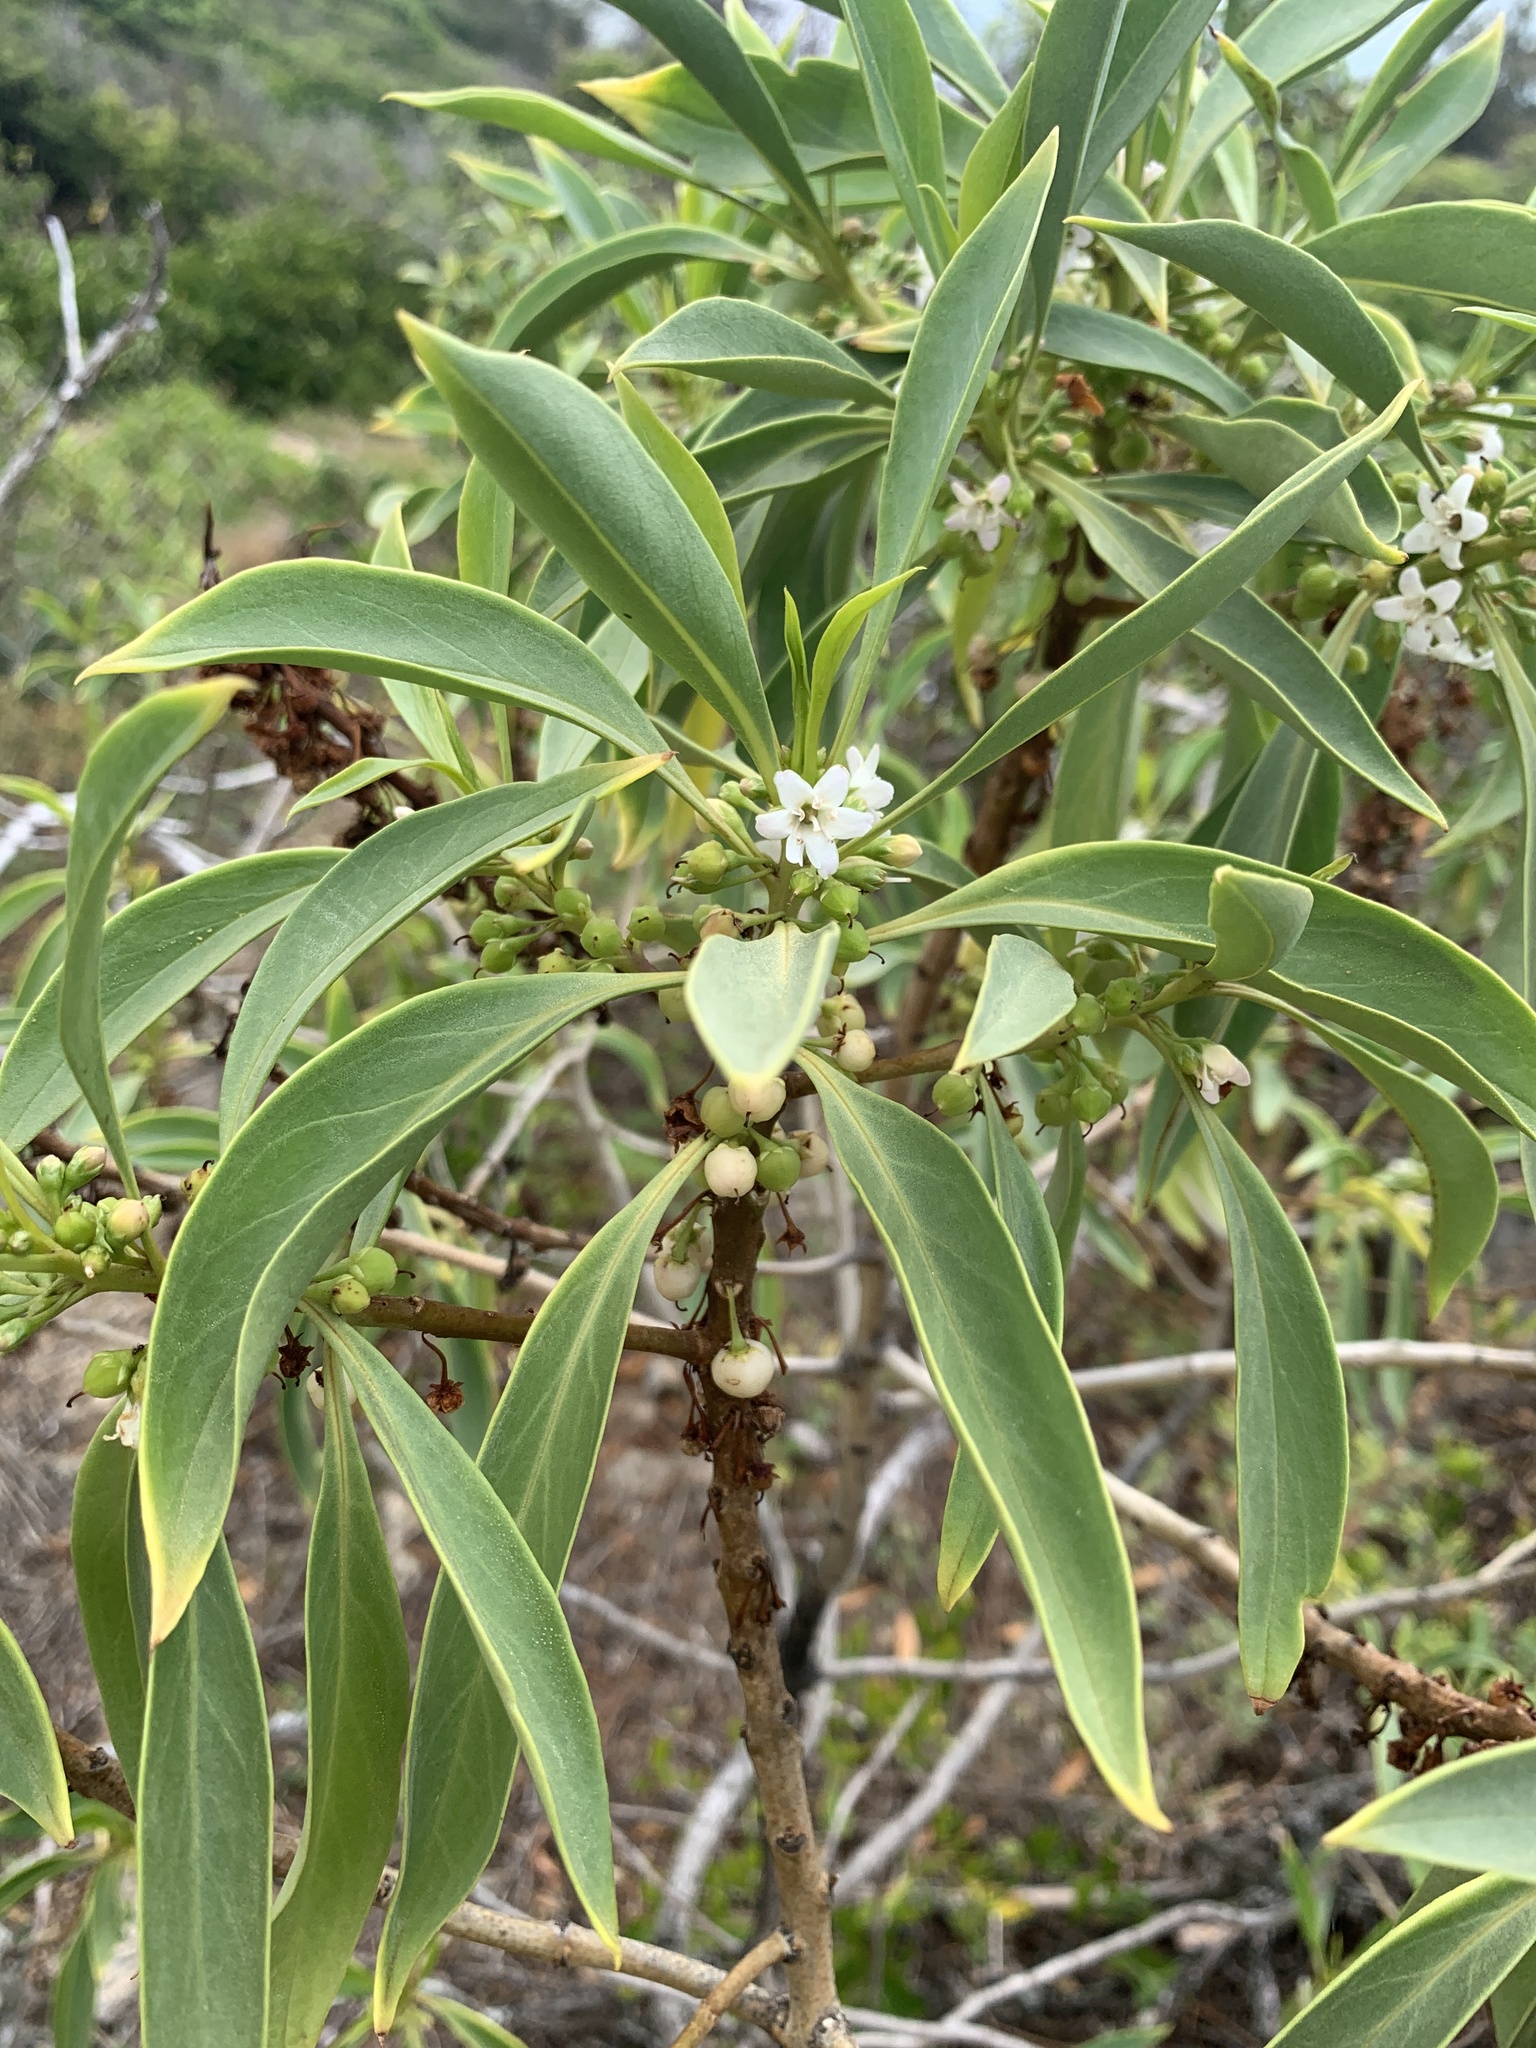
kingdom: Plantae
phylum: Tracheophyta
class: Magnoliopsida
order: Lamiales
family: Scrophulariaceae
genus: Myoporum
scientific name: Myoporum sandwicense
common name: Bastard-sandalwood
